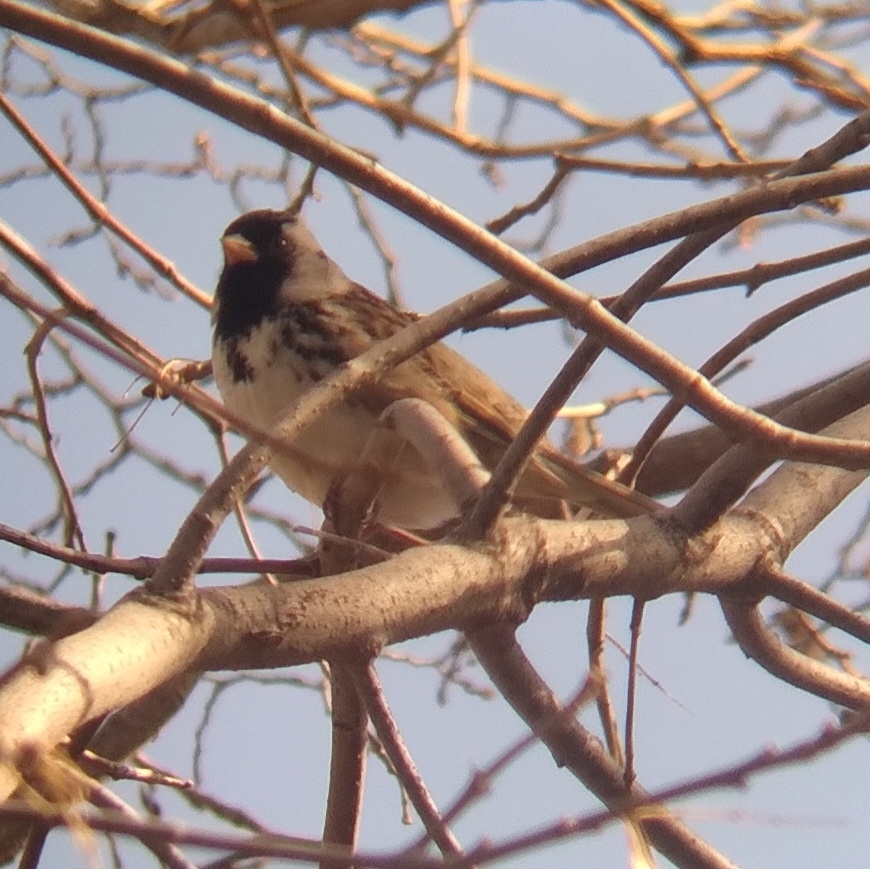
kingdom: Animalia
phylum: Chordata
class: Aves
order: Passeriformes
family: Passerellidae
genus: Zonotrichia
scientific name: Zonotrichia querula
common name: Harris's sparrow
